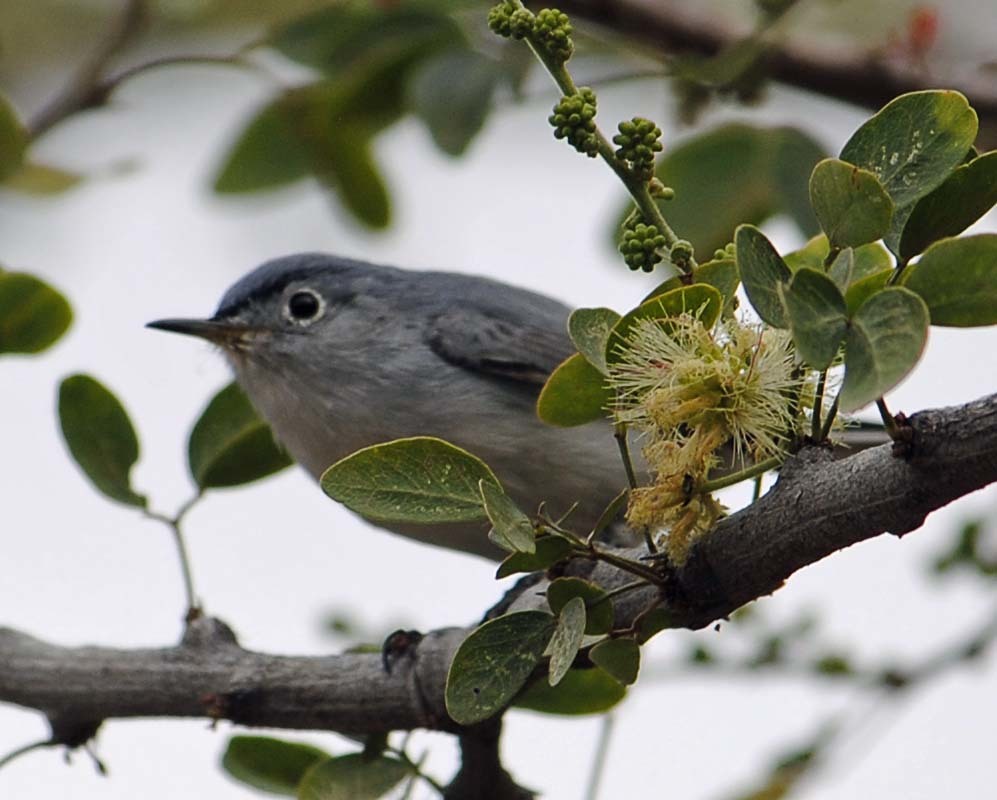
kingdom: Animalia
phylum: Chordata
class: Aves
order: Passeriformes
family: Polioptilidae
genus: Polioptila
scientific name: Polioptila caerulea
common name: Blue-gray gnatcatcher
